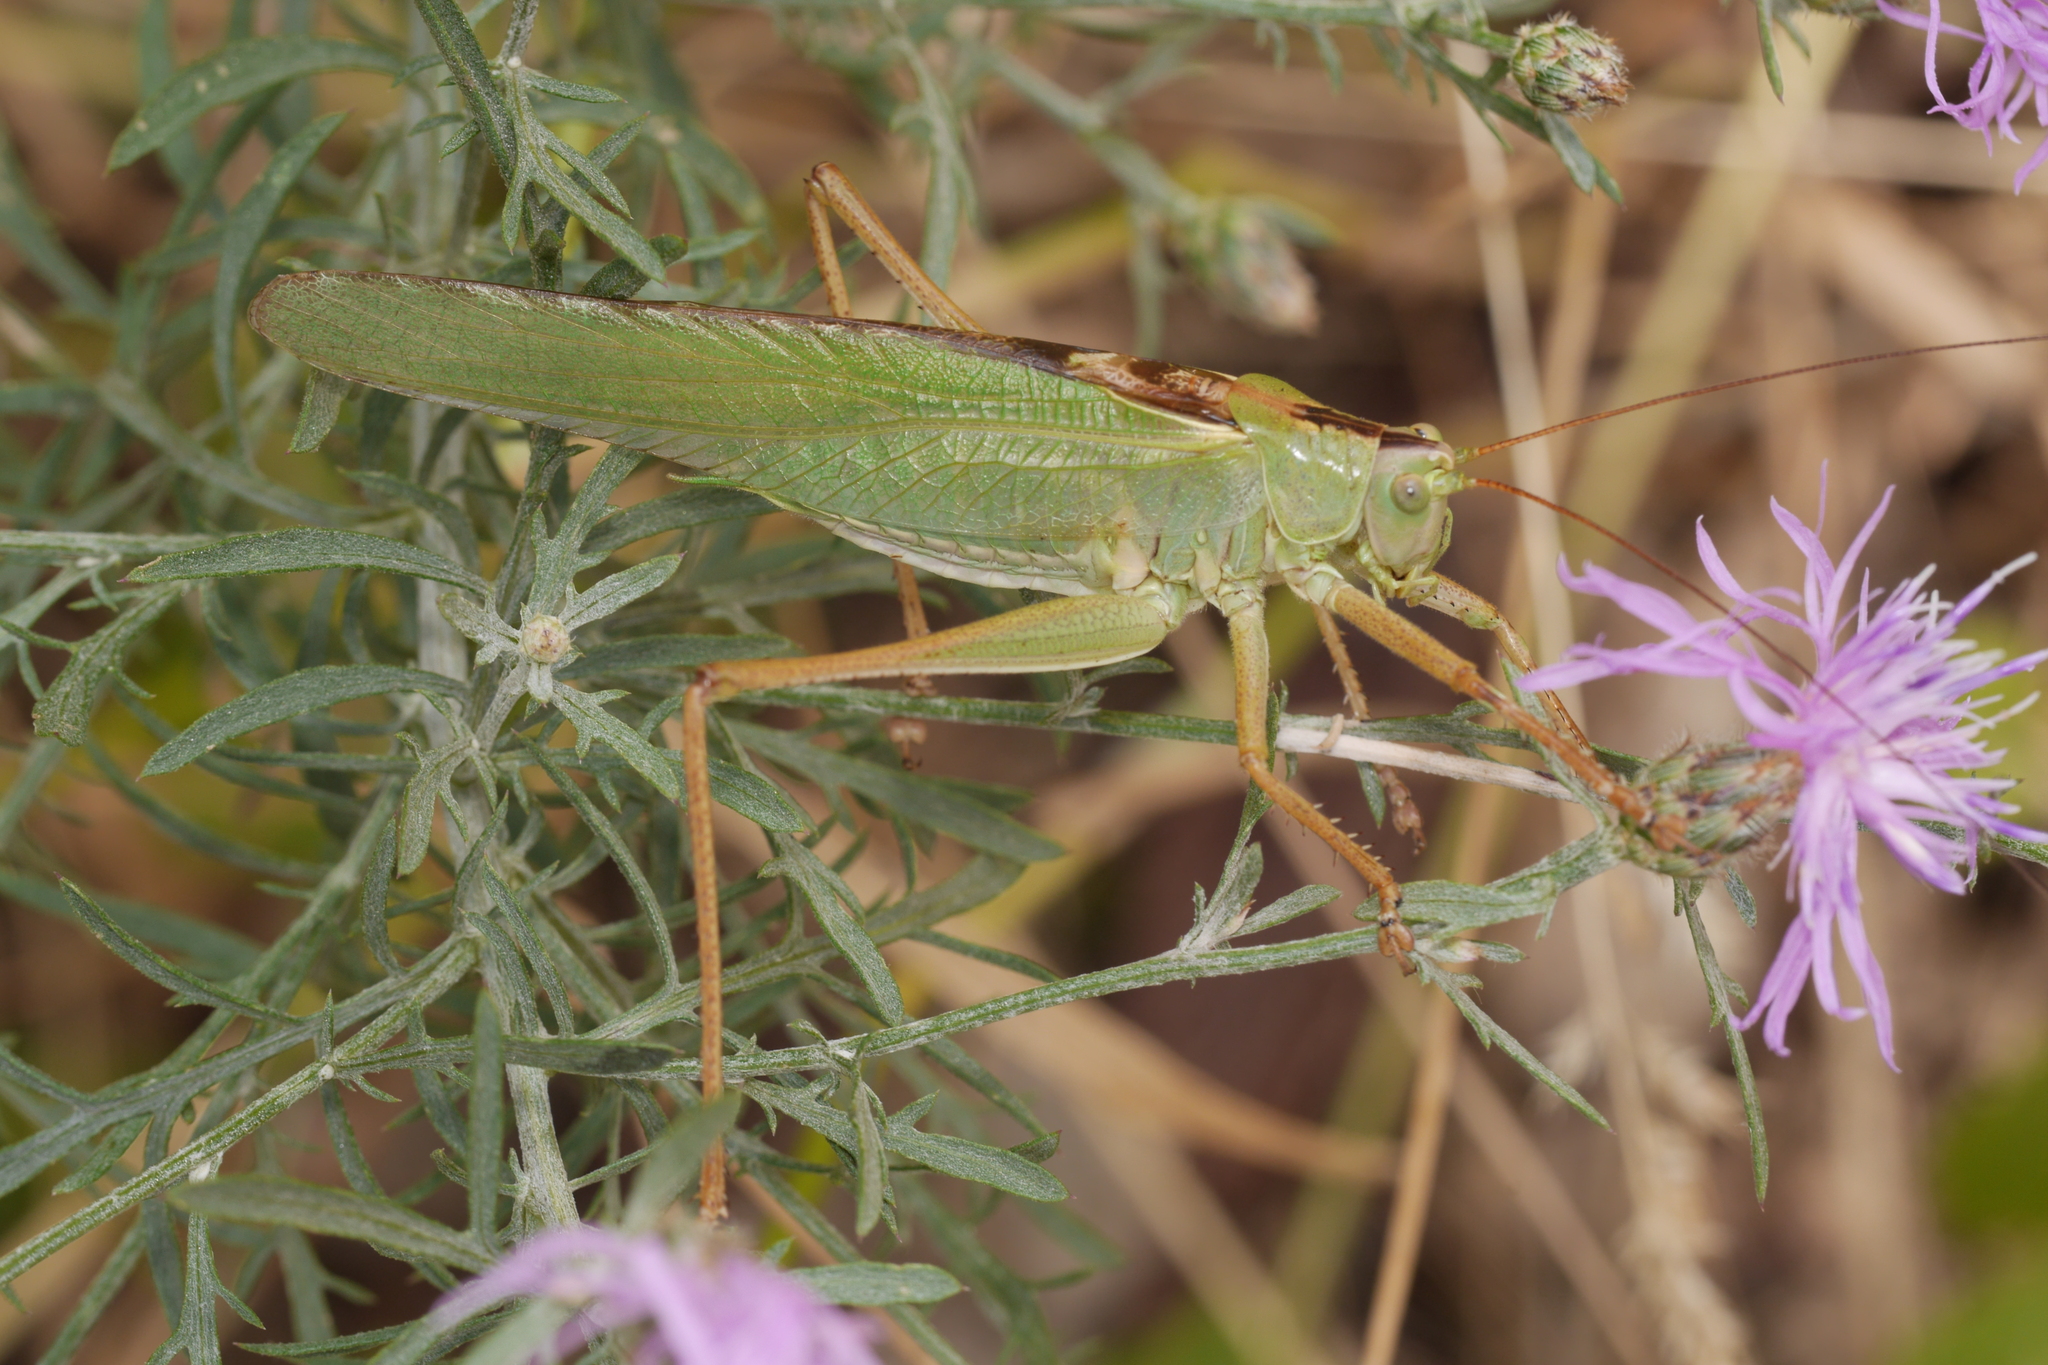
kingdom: Animalia
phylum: Arthropoda
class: Insecta
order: Orthoptera
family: Tettigoniidae
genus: Tettigonia
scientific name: Tettigonia viridissima
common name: Great green bush-cricket
